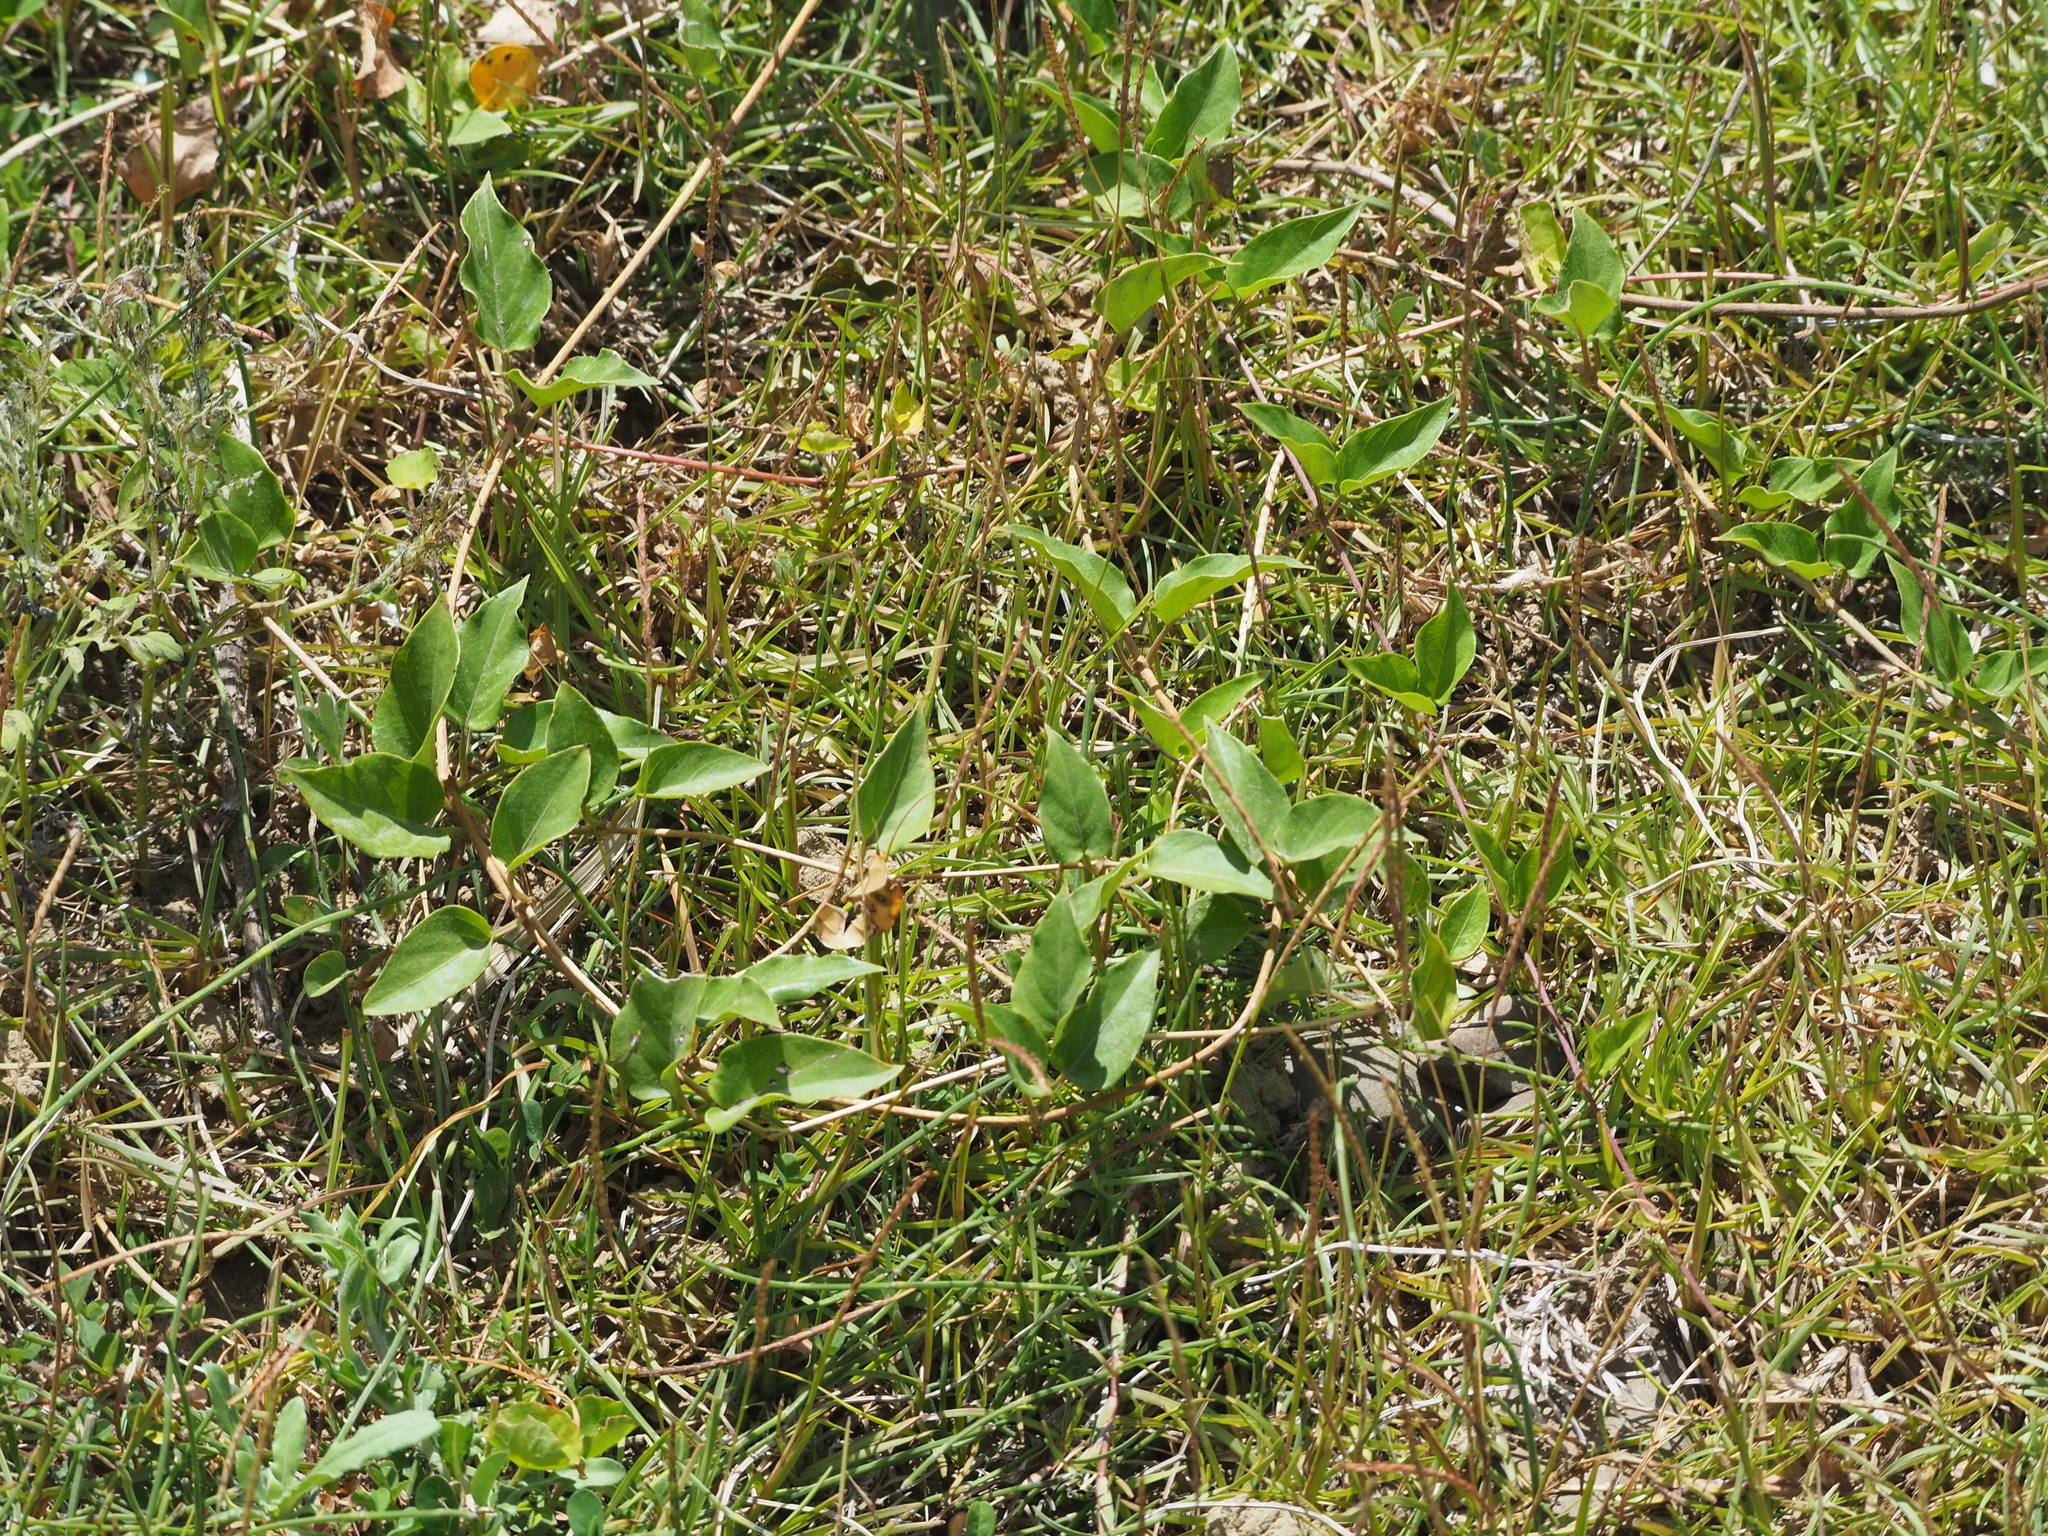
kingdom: Plantae
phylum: Tracheophyta
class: Magnoliopsida
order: Gentianales
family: Rubiaceae
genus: Paederia
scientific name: Paederia foetida
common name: Stinkvine
